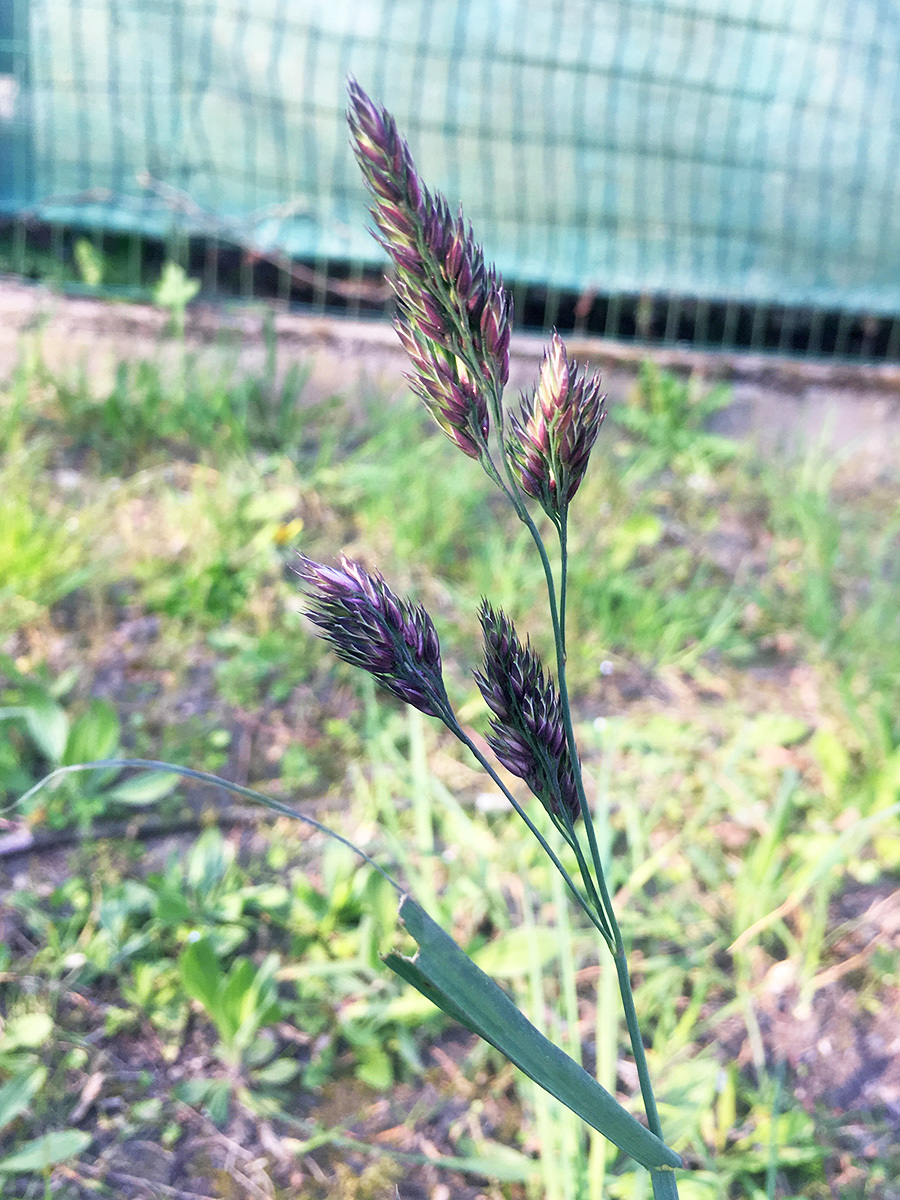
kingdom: Plantae
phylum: Tracheophyta
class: Liliopsida
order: Poales
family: Poaceae
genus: Dactylis
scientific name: Dactylis glomerata
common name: Orchardgrass
